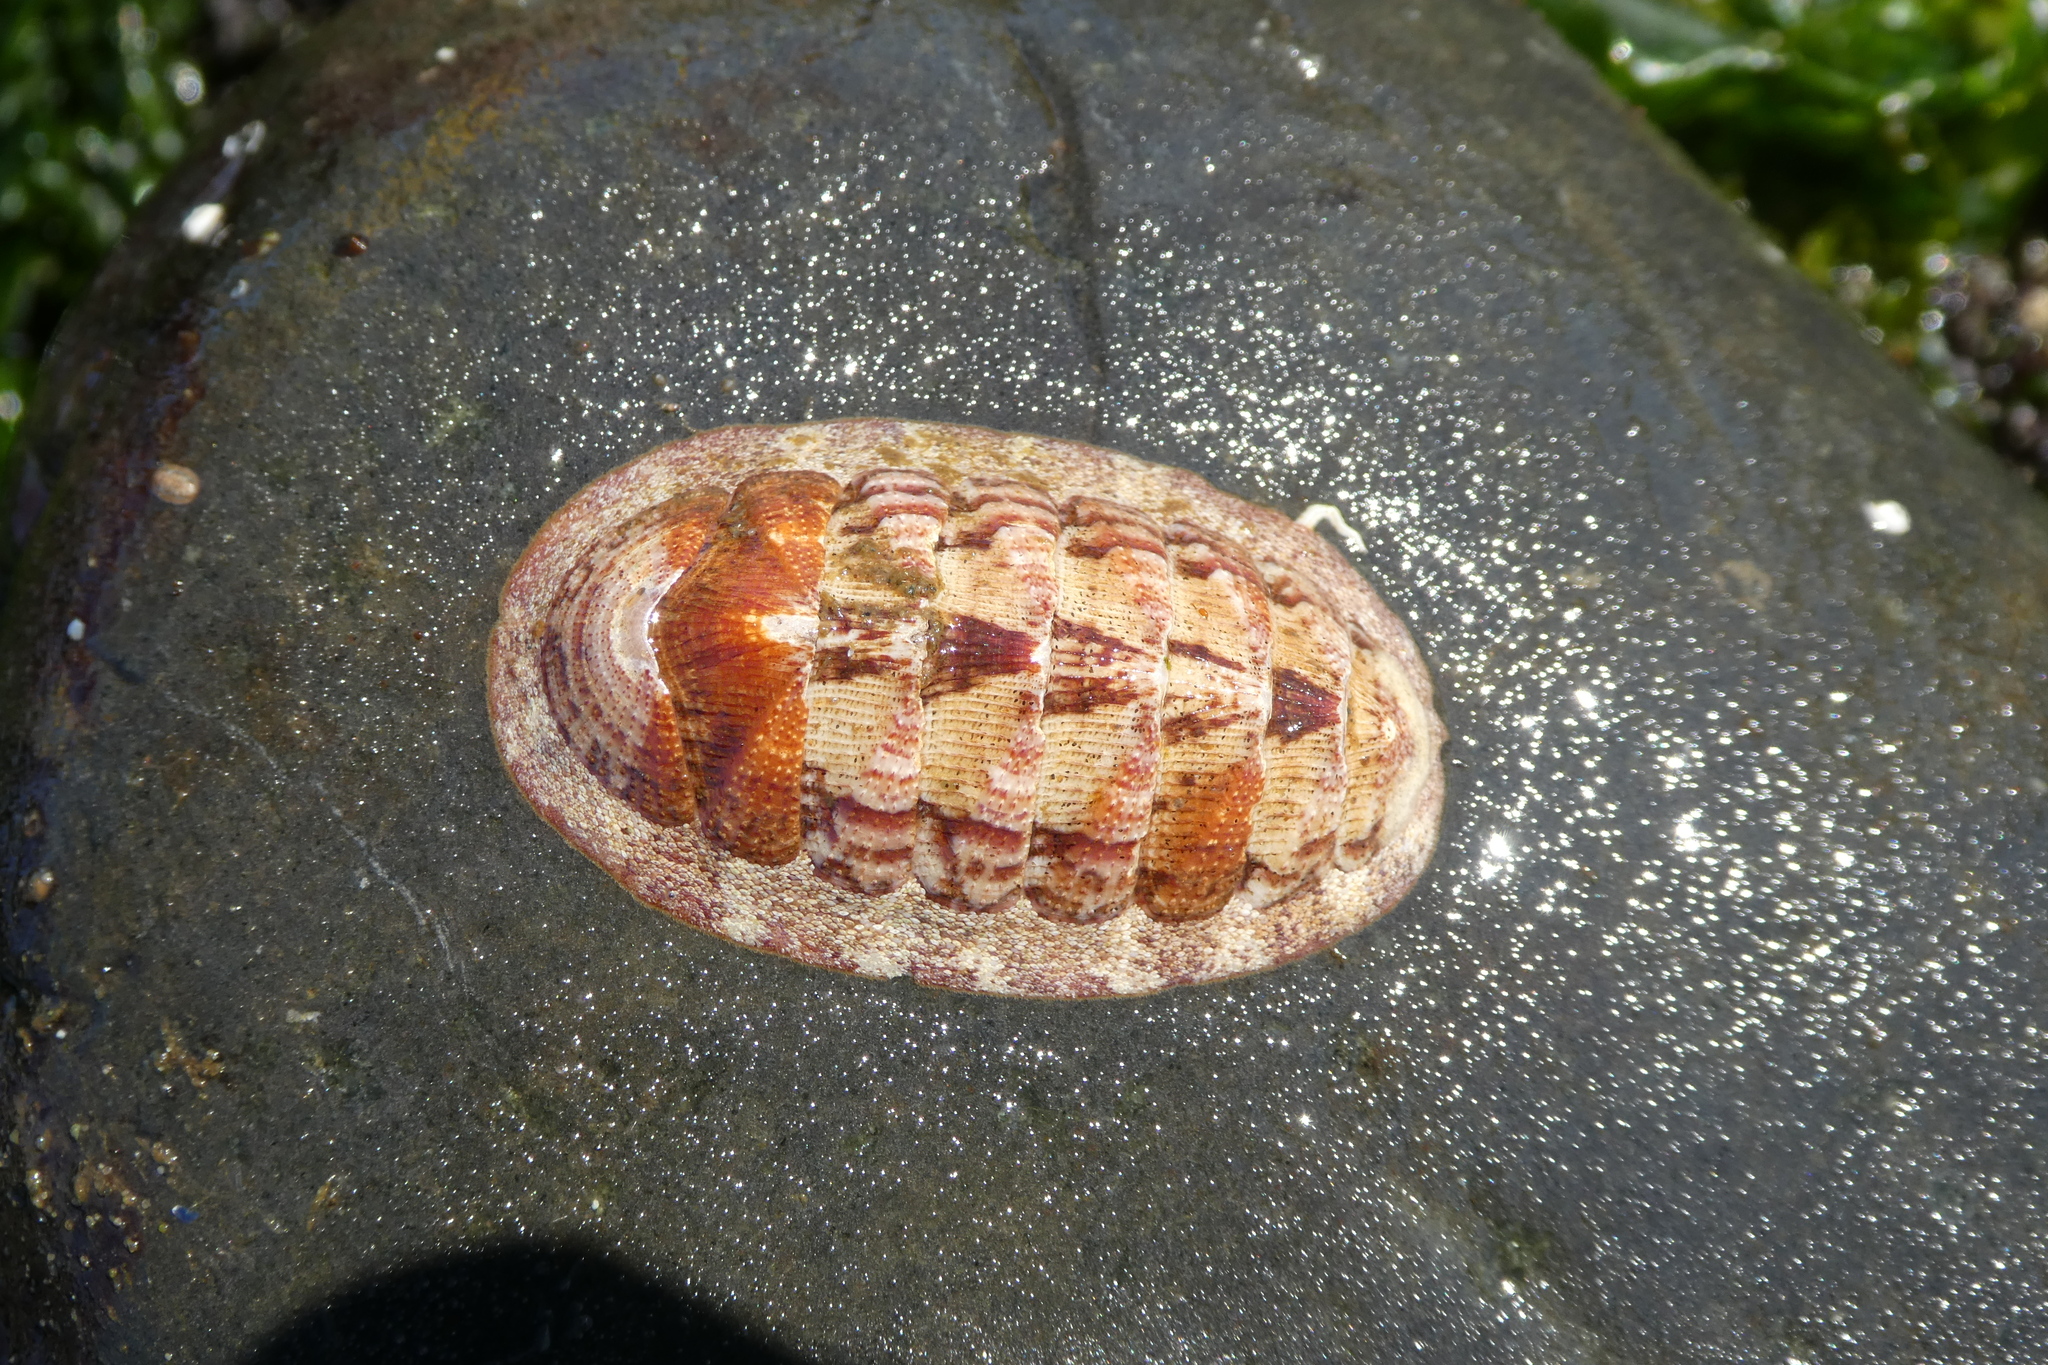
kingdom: Animalia
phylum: Mollusca
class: Polyplacophora
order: Chitonida
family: Ischnochitonidae
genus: Lepidozona
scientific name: Lepidozona mertensii
